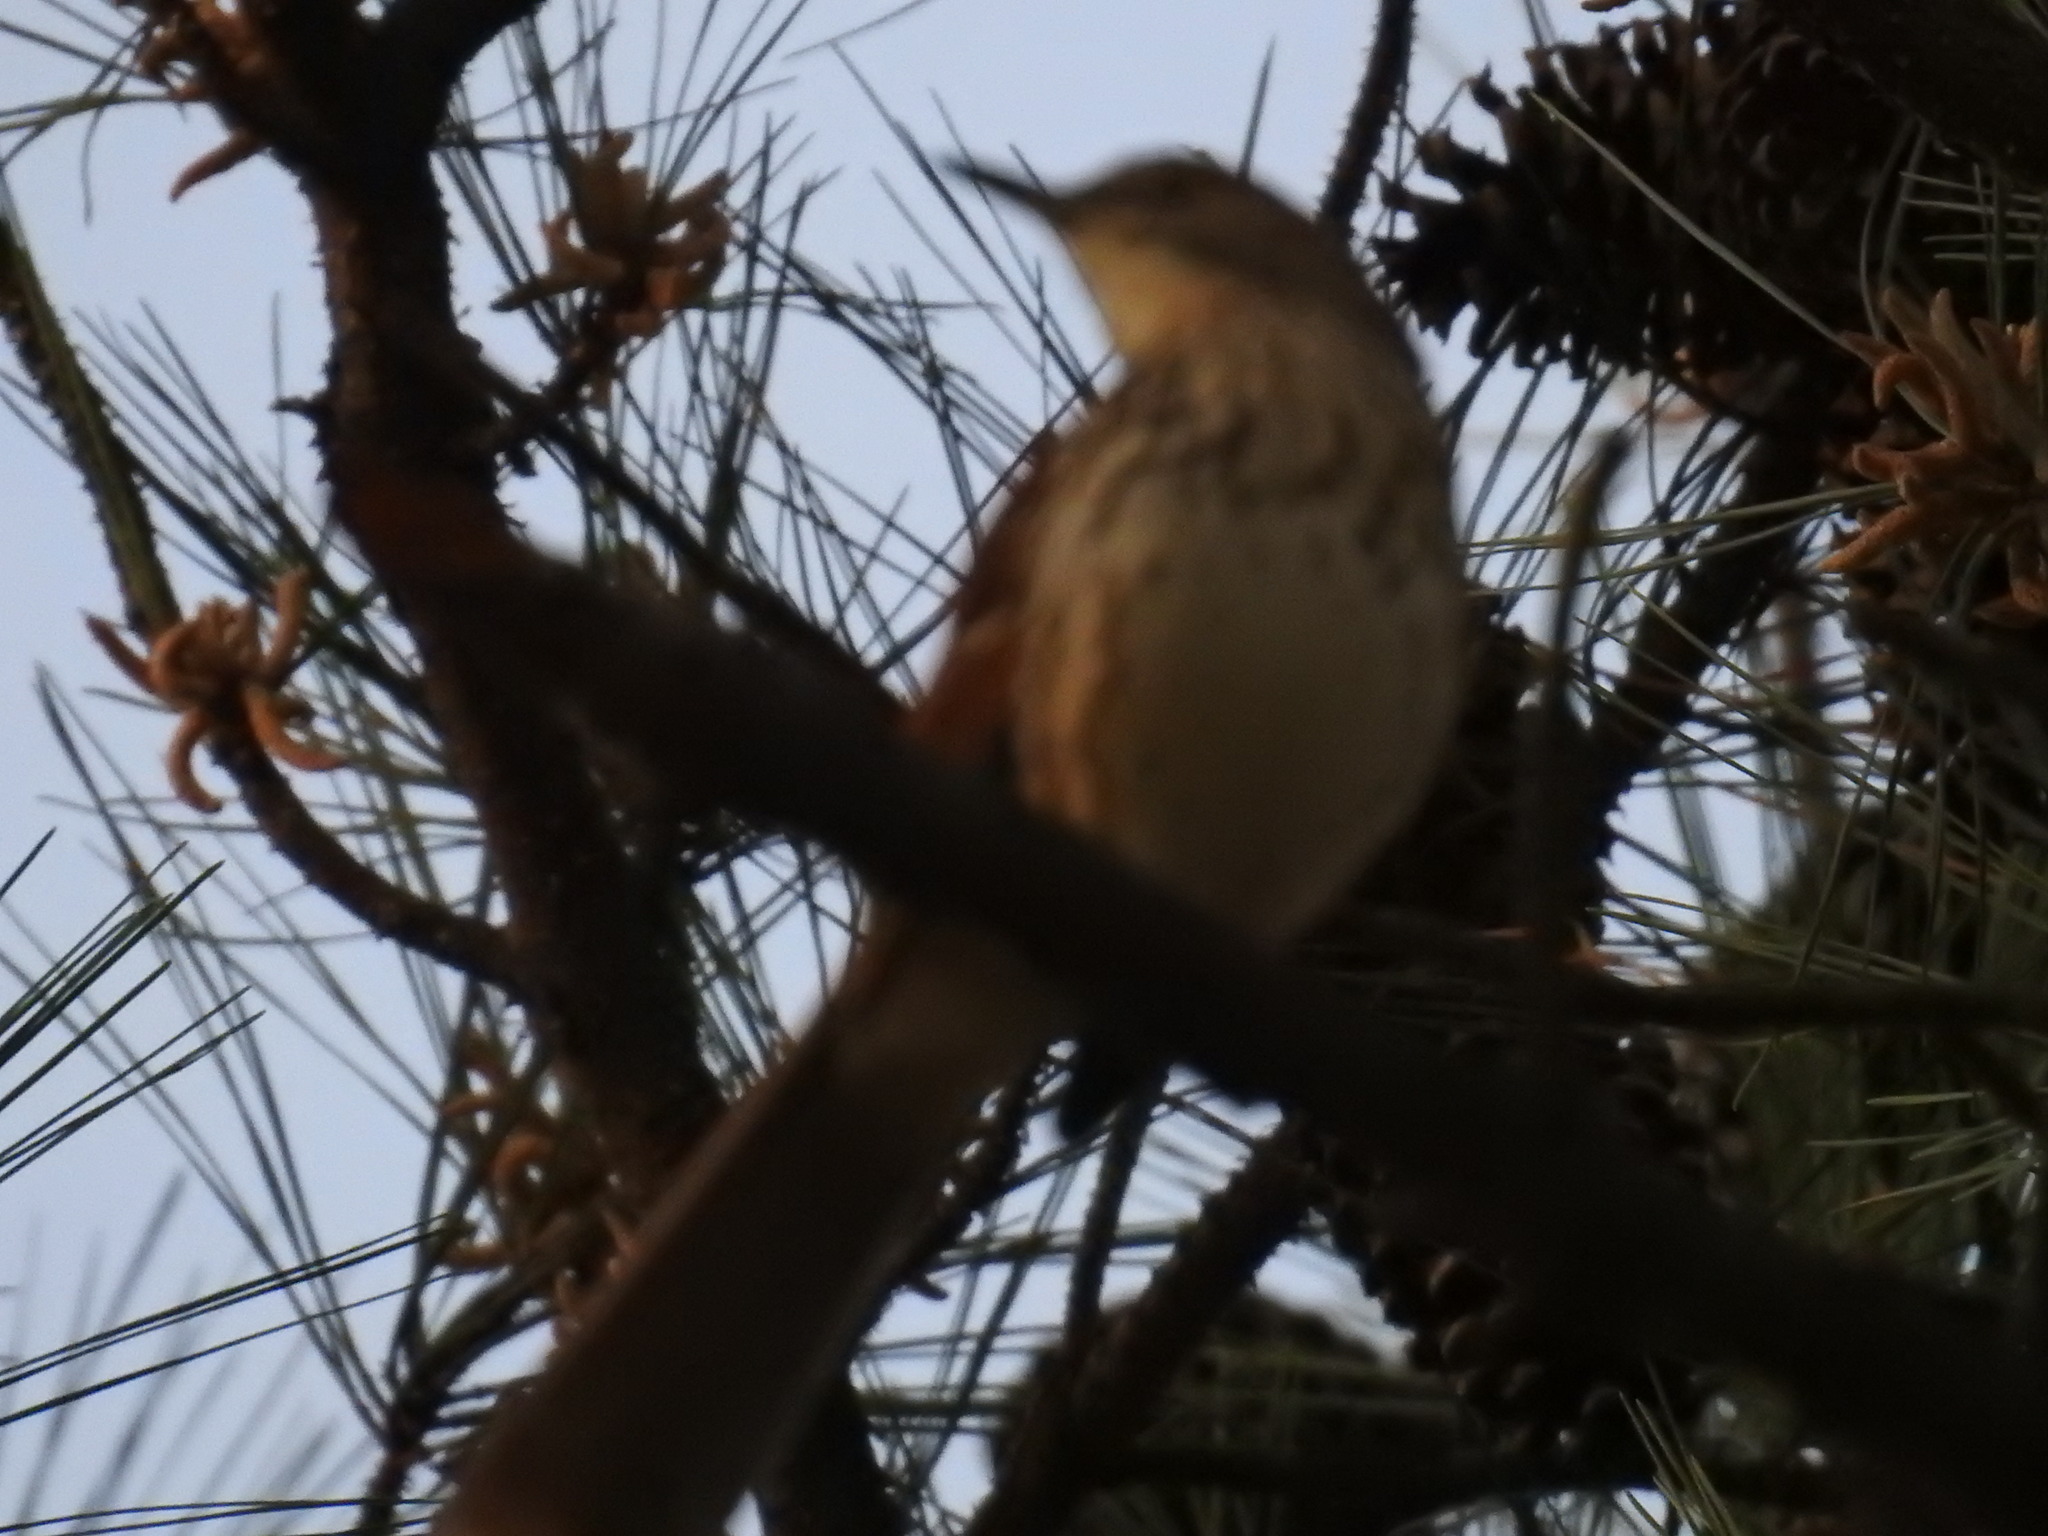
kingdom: Animalia
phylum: Chordata
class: Aves
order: Passeriformes
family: Mimidae
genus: Toxostoma
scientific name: Toxostoma rufum
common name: Brown thrasher
